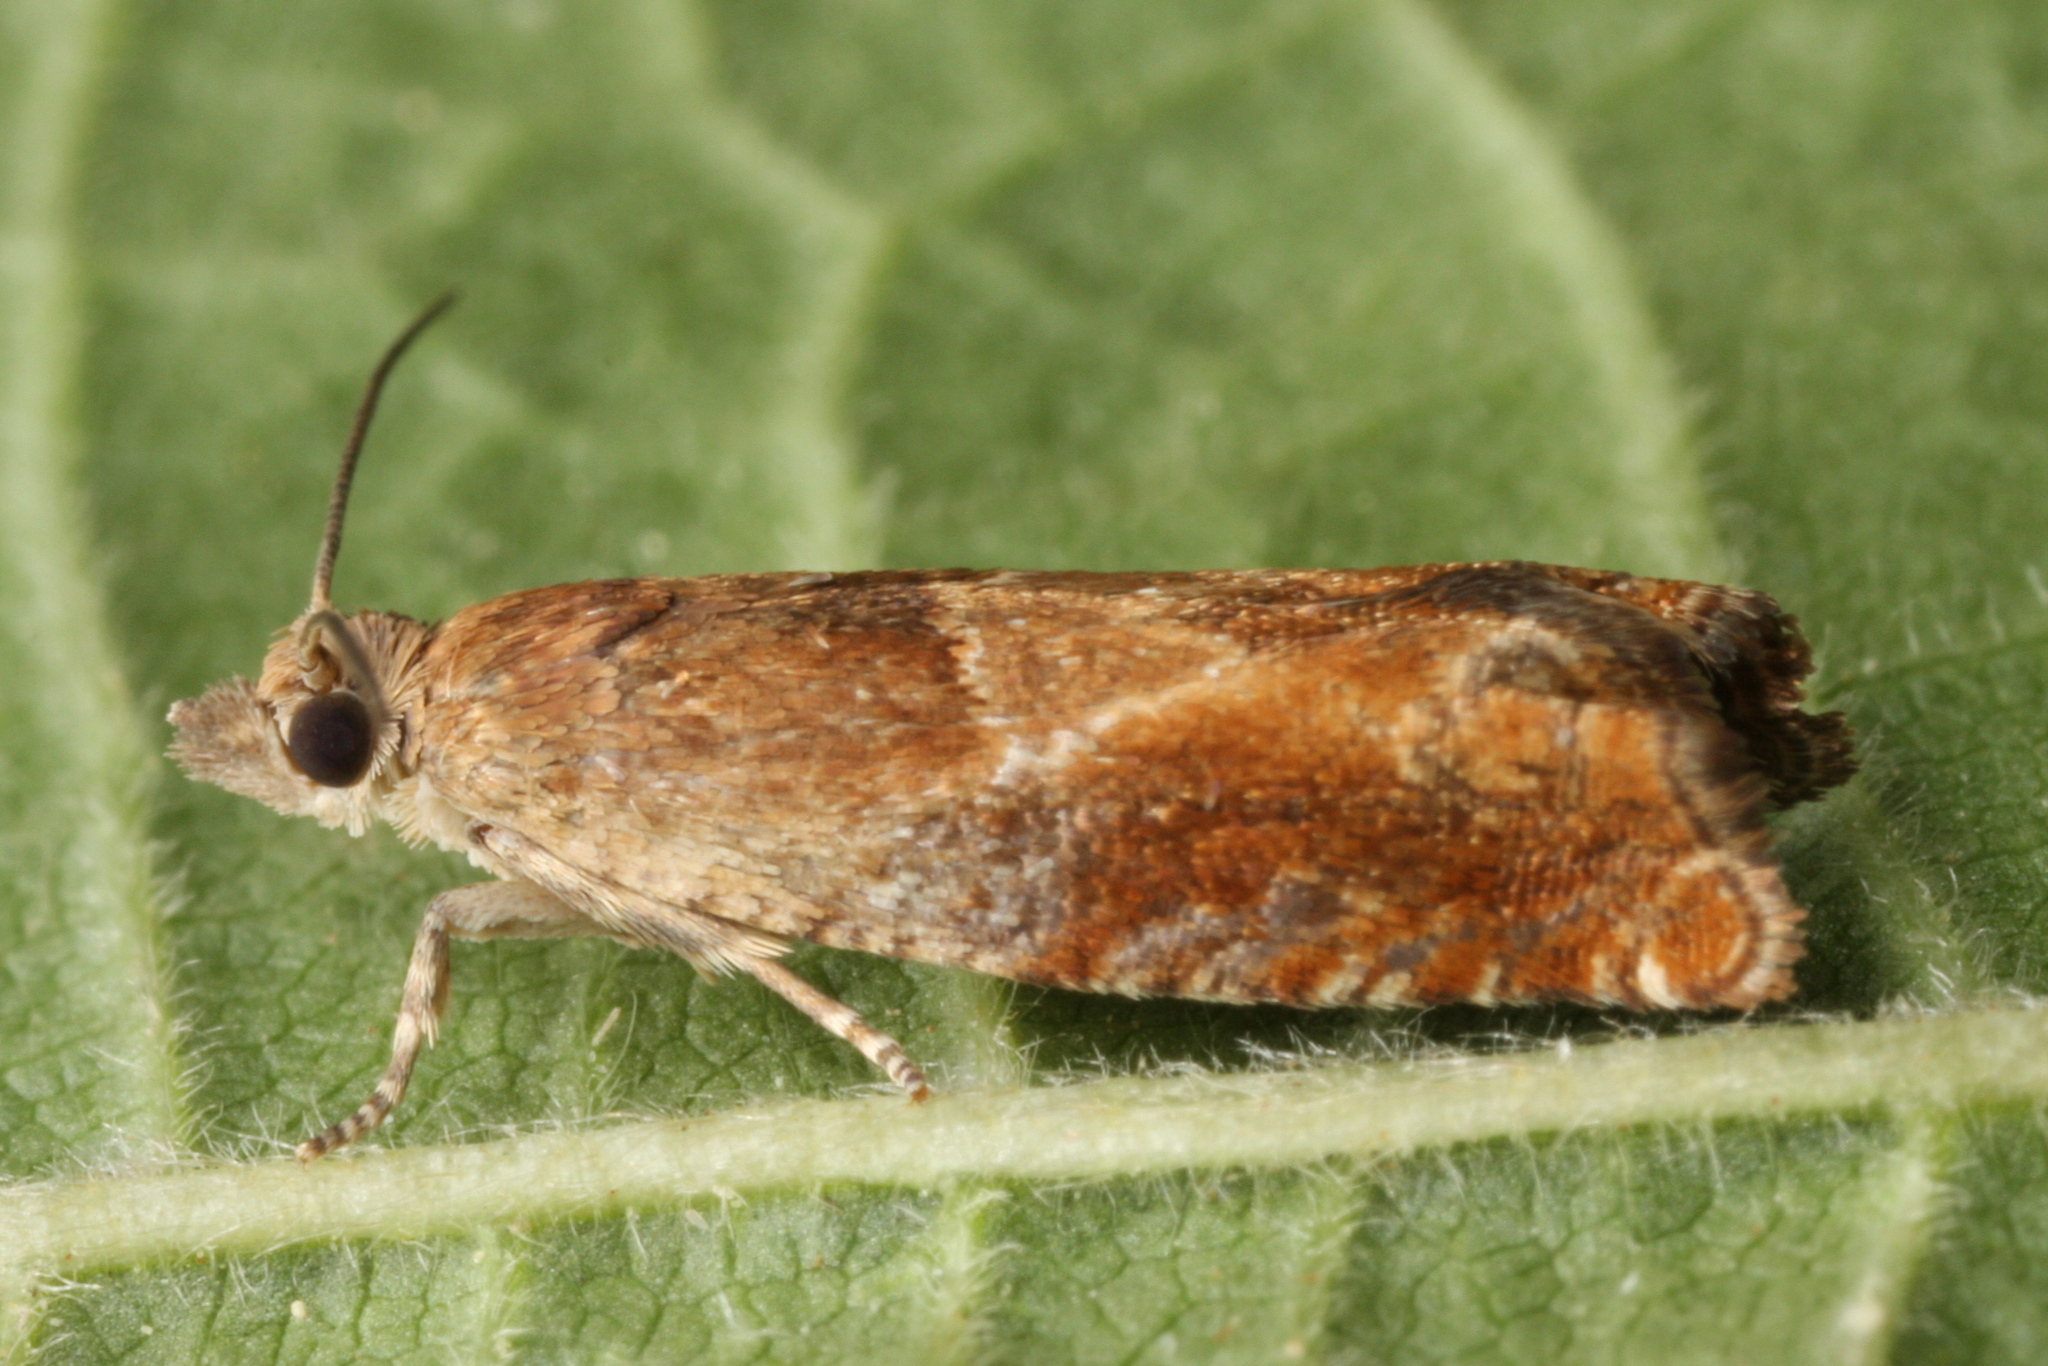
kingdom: Animalia
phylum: Arthropoda
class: Insecta
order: Lepidoptera
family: Tortricidae
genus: Epinotia
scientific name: Epinotia tenerana
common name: Nut bud moth
